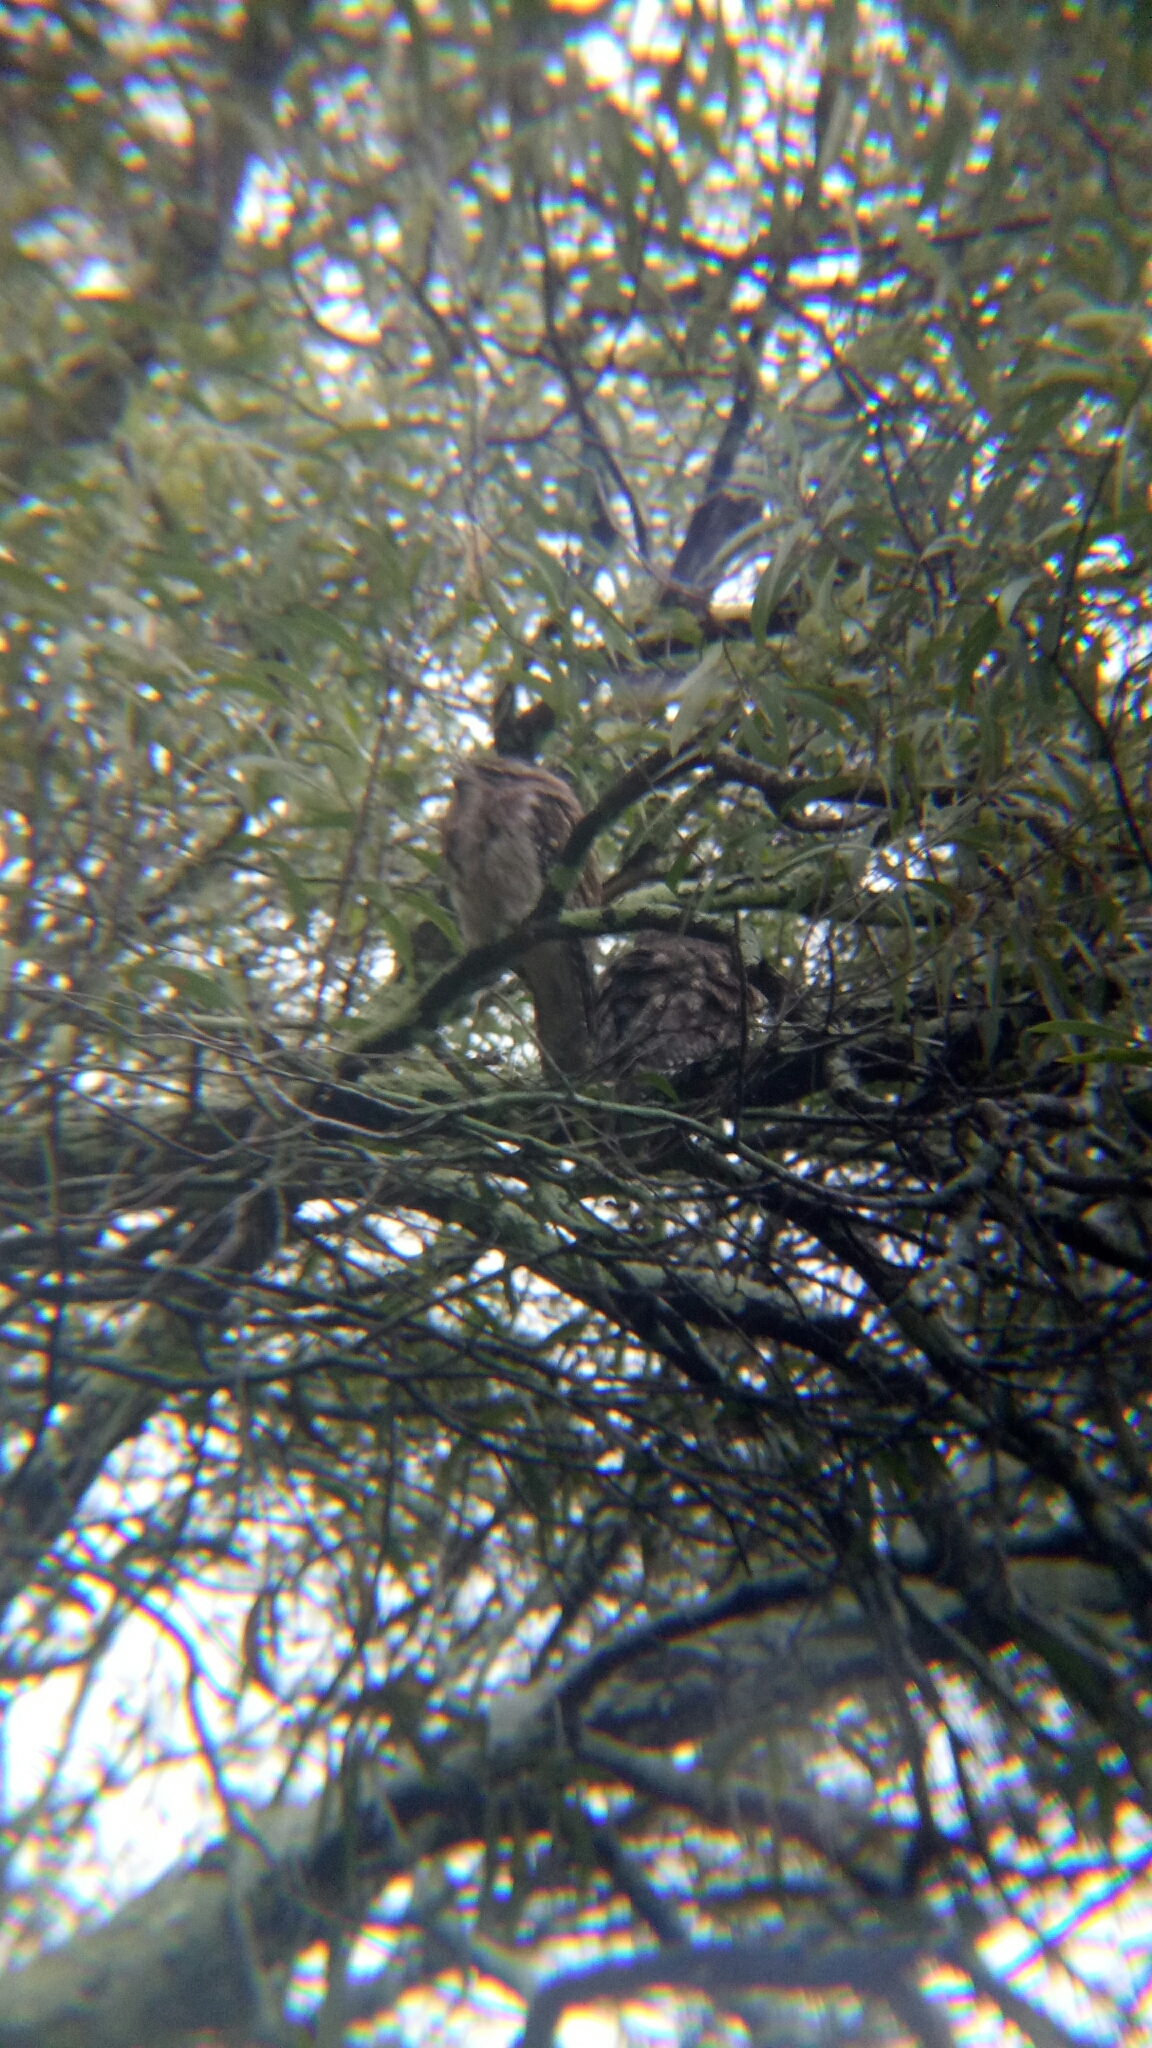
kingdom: Animalia
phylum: Chordata
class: Aves
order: Caprimulgiformes
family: Podargidae
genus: Podargus
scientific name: Podargus strigoides
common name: Tawny frogmouth
